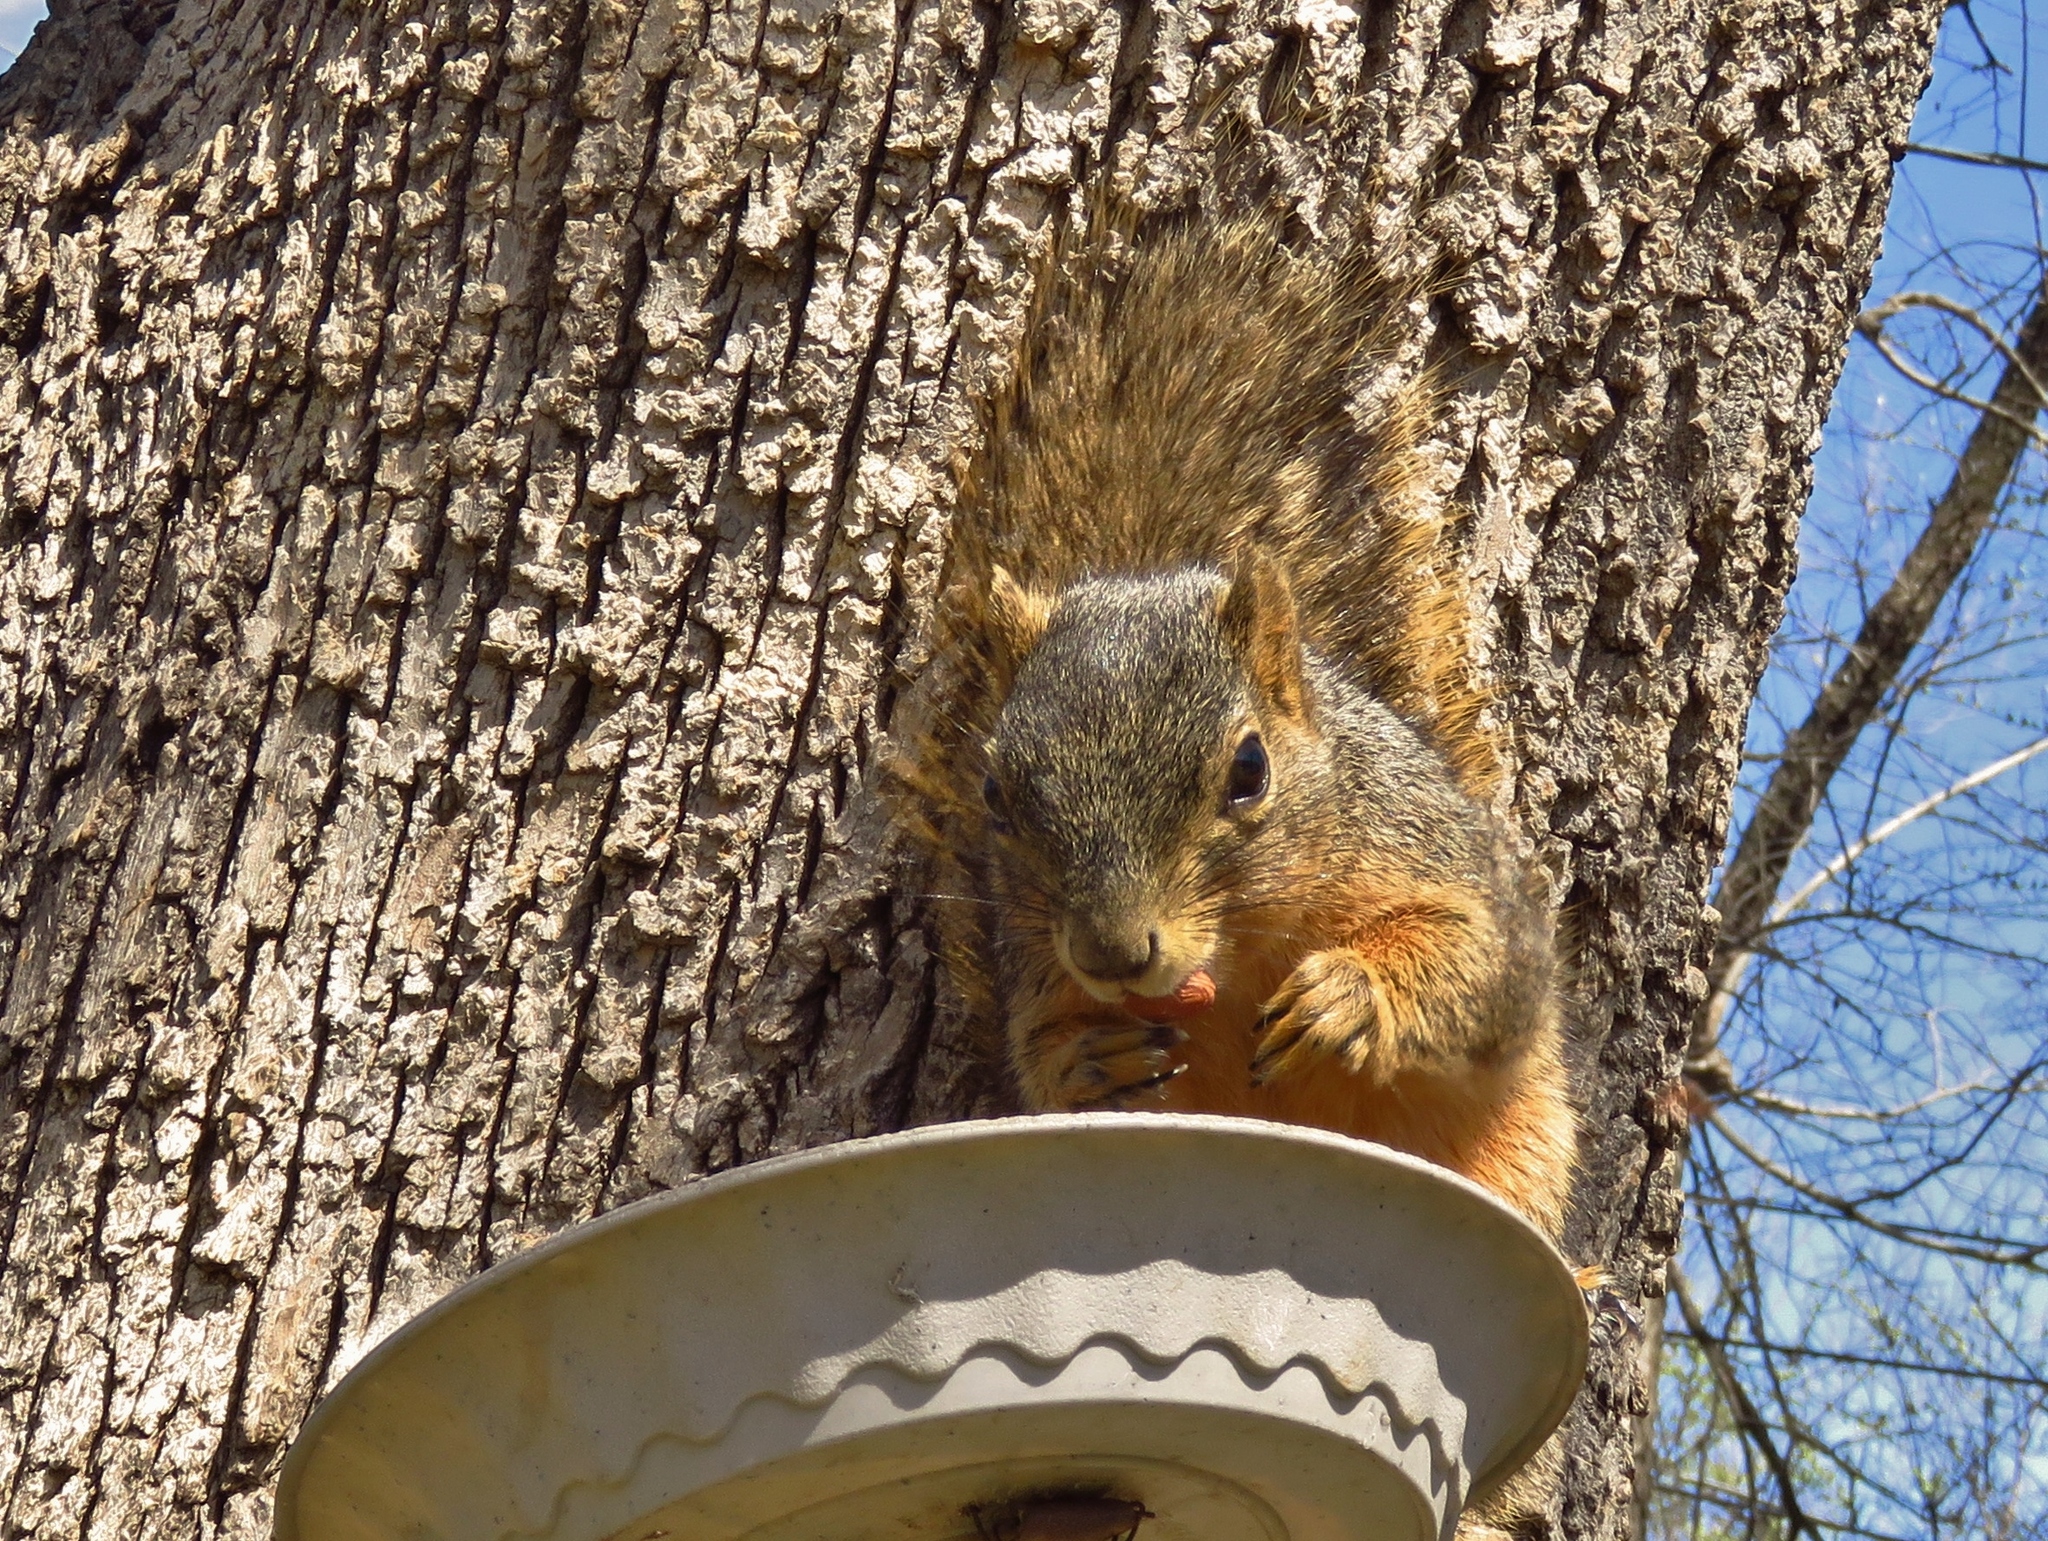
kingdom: Animalia
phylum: Chordata
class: Mammalia
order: Rodentia
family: Sciuridae
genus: Sciurus
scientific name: Sciurus niger
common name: Fox squirrel
